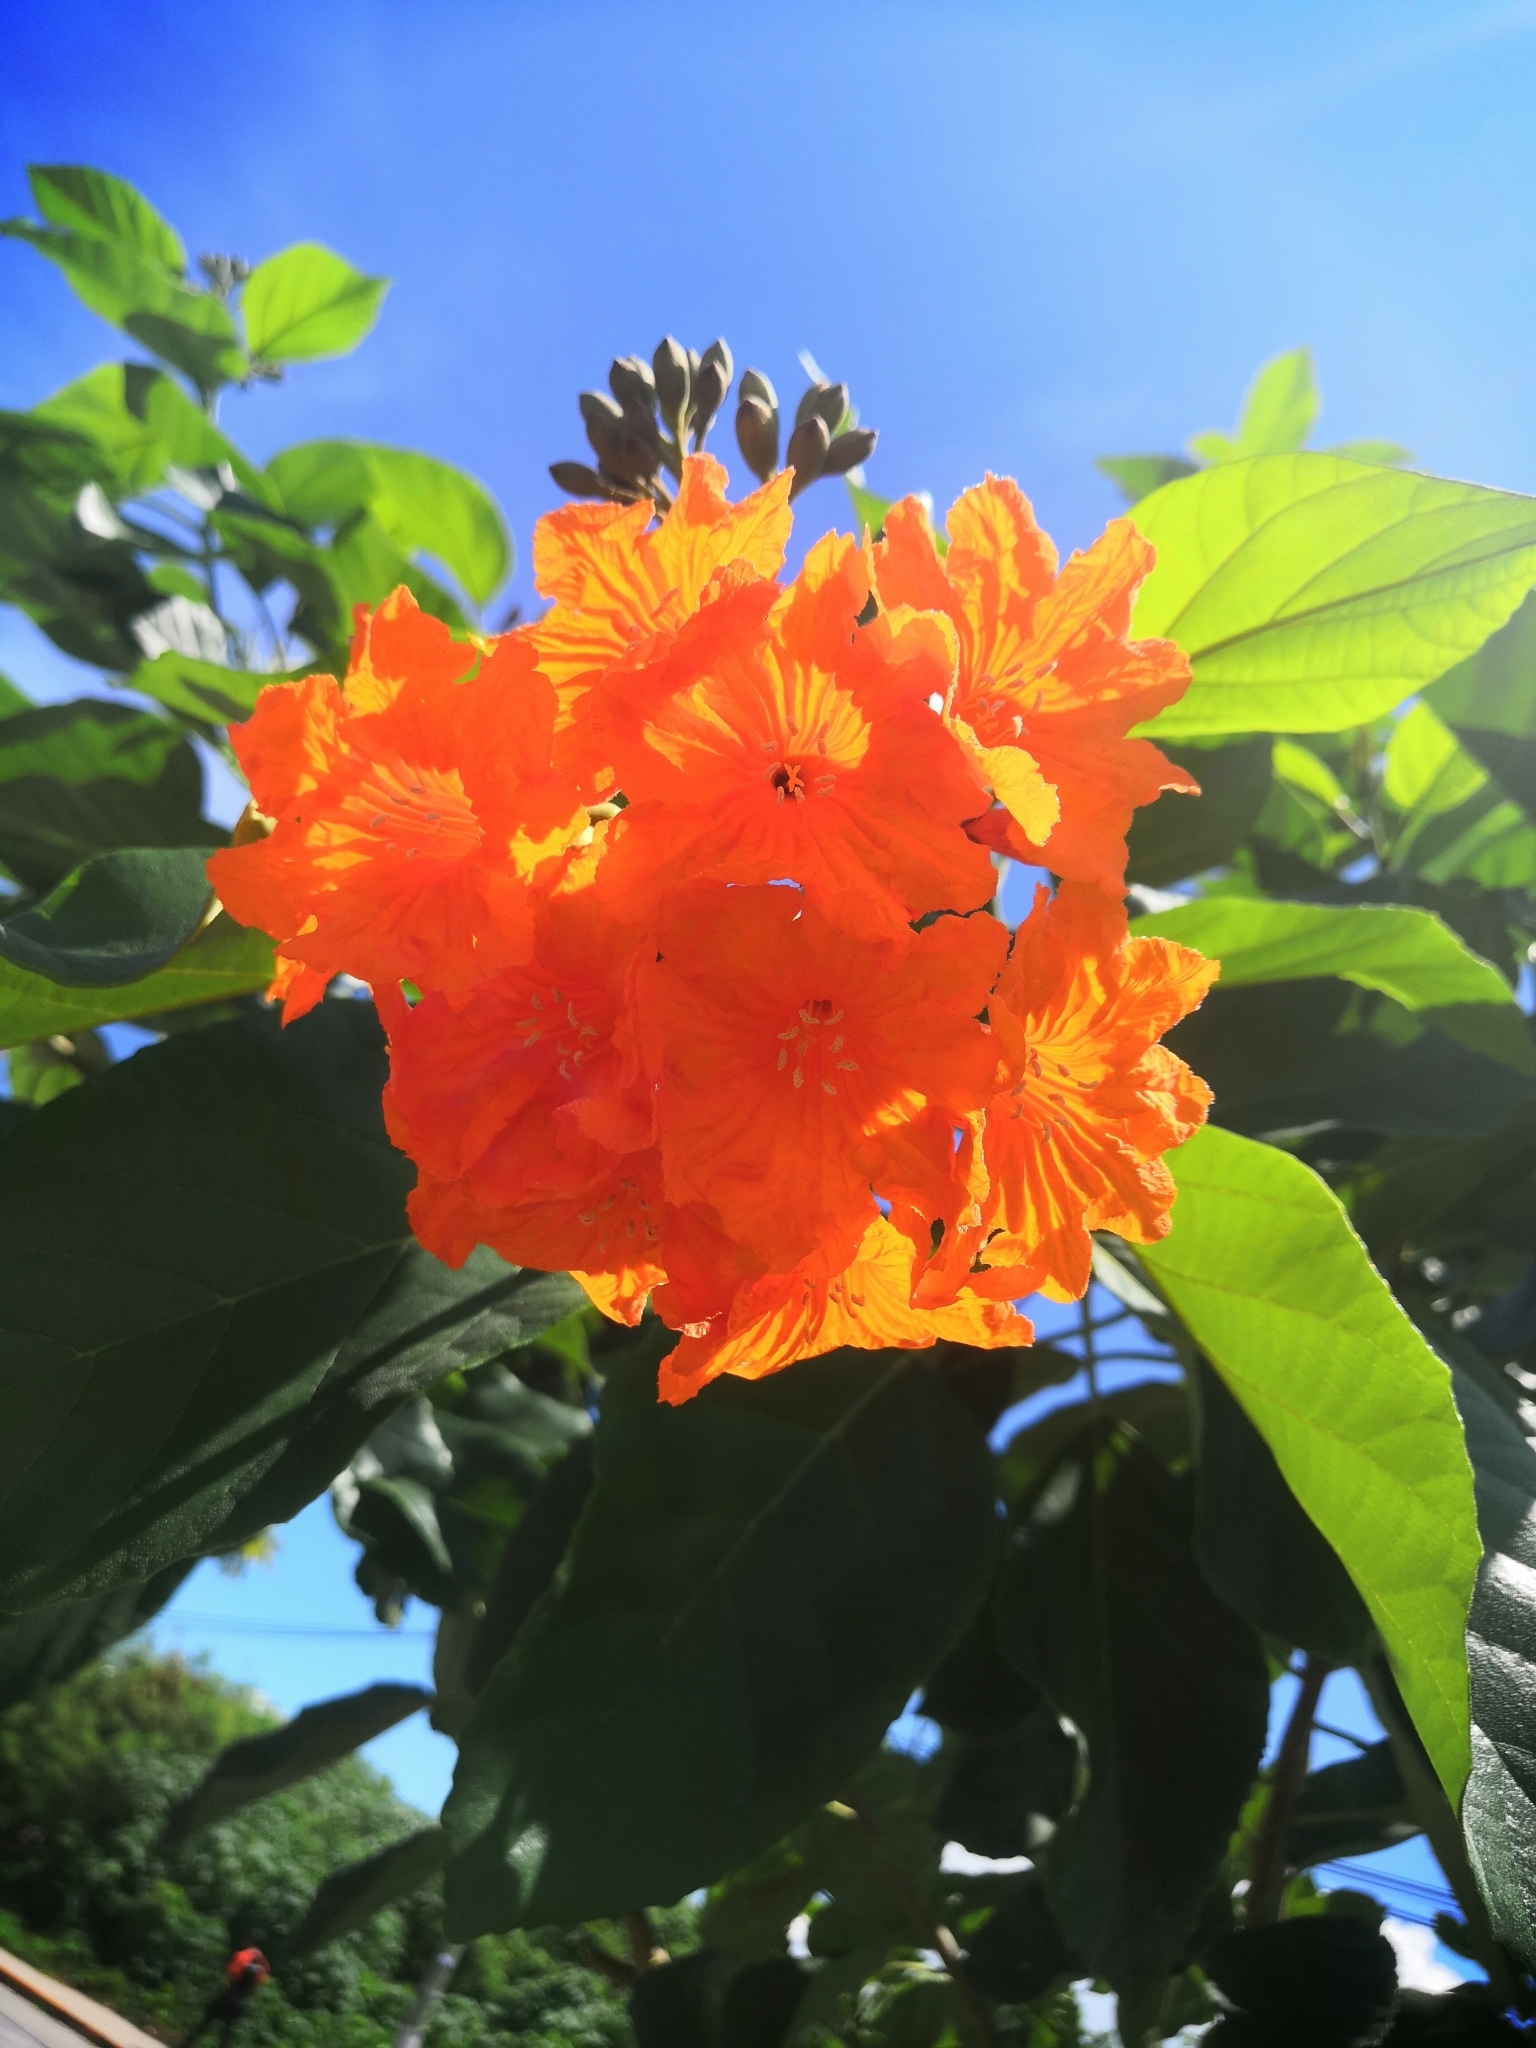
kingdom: Plantae
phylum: Tracheophyta
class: Magnoliopsida
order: Boraginales
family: Cordiaceae
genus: Cordia
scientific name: Cordia dodecandra
